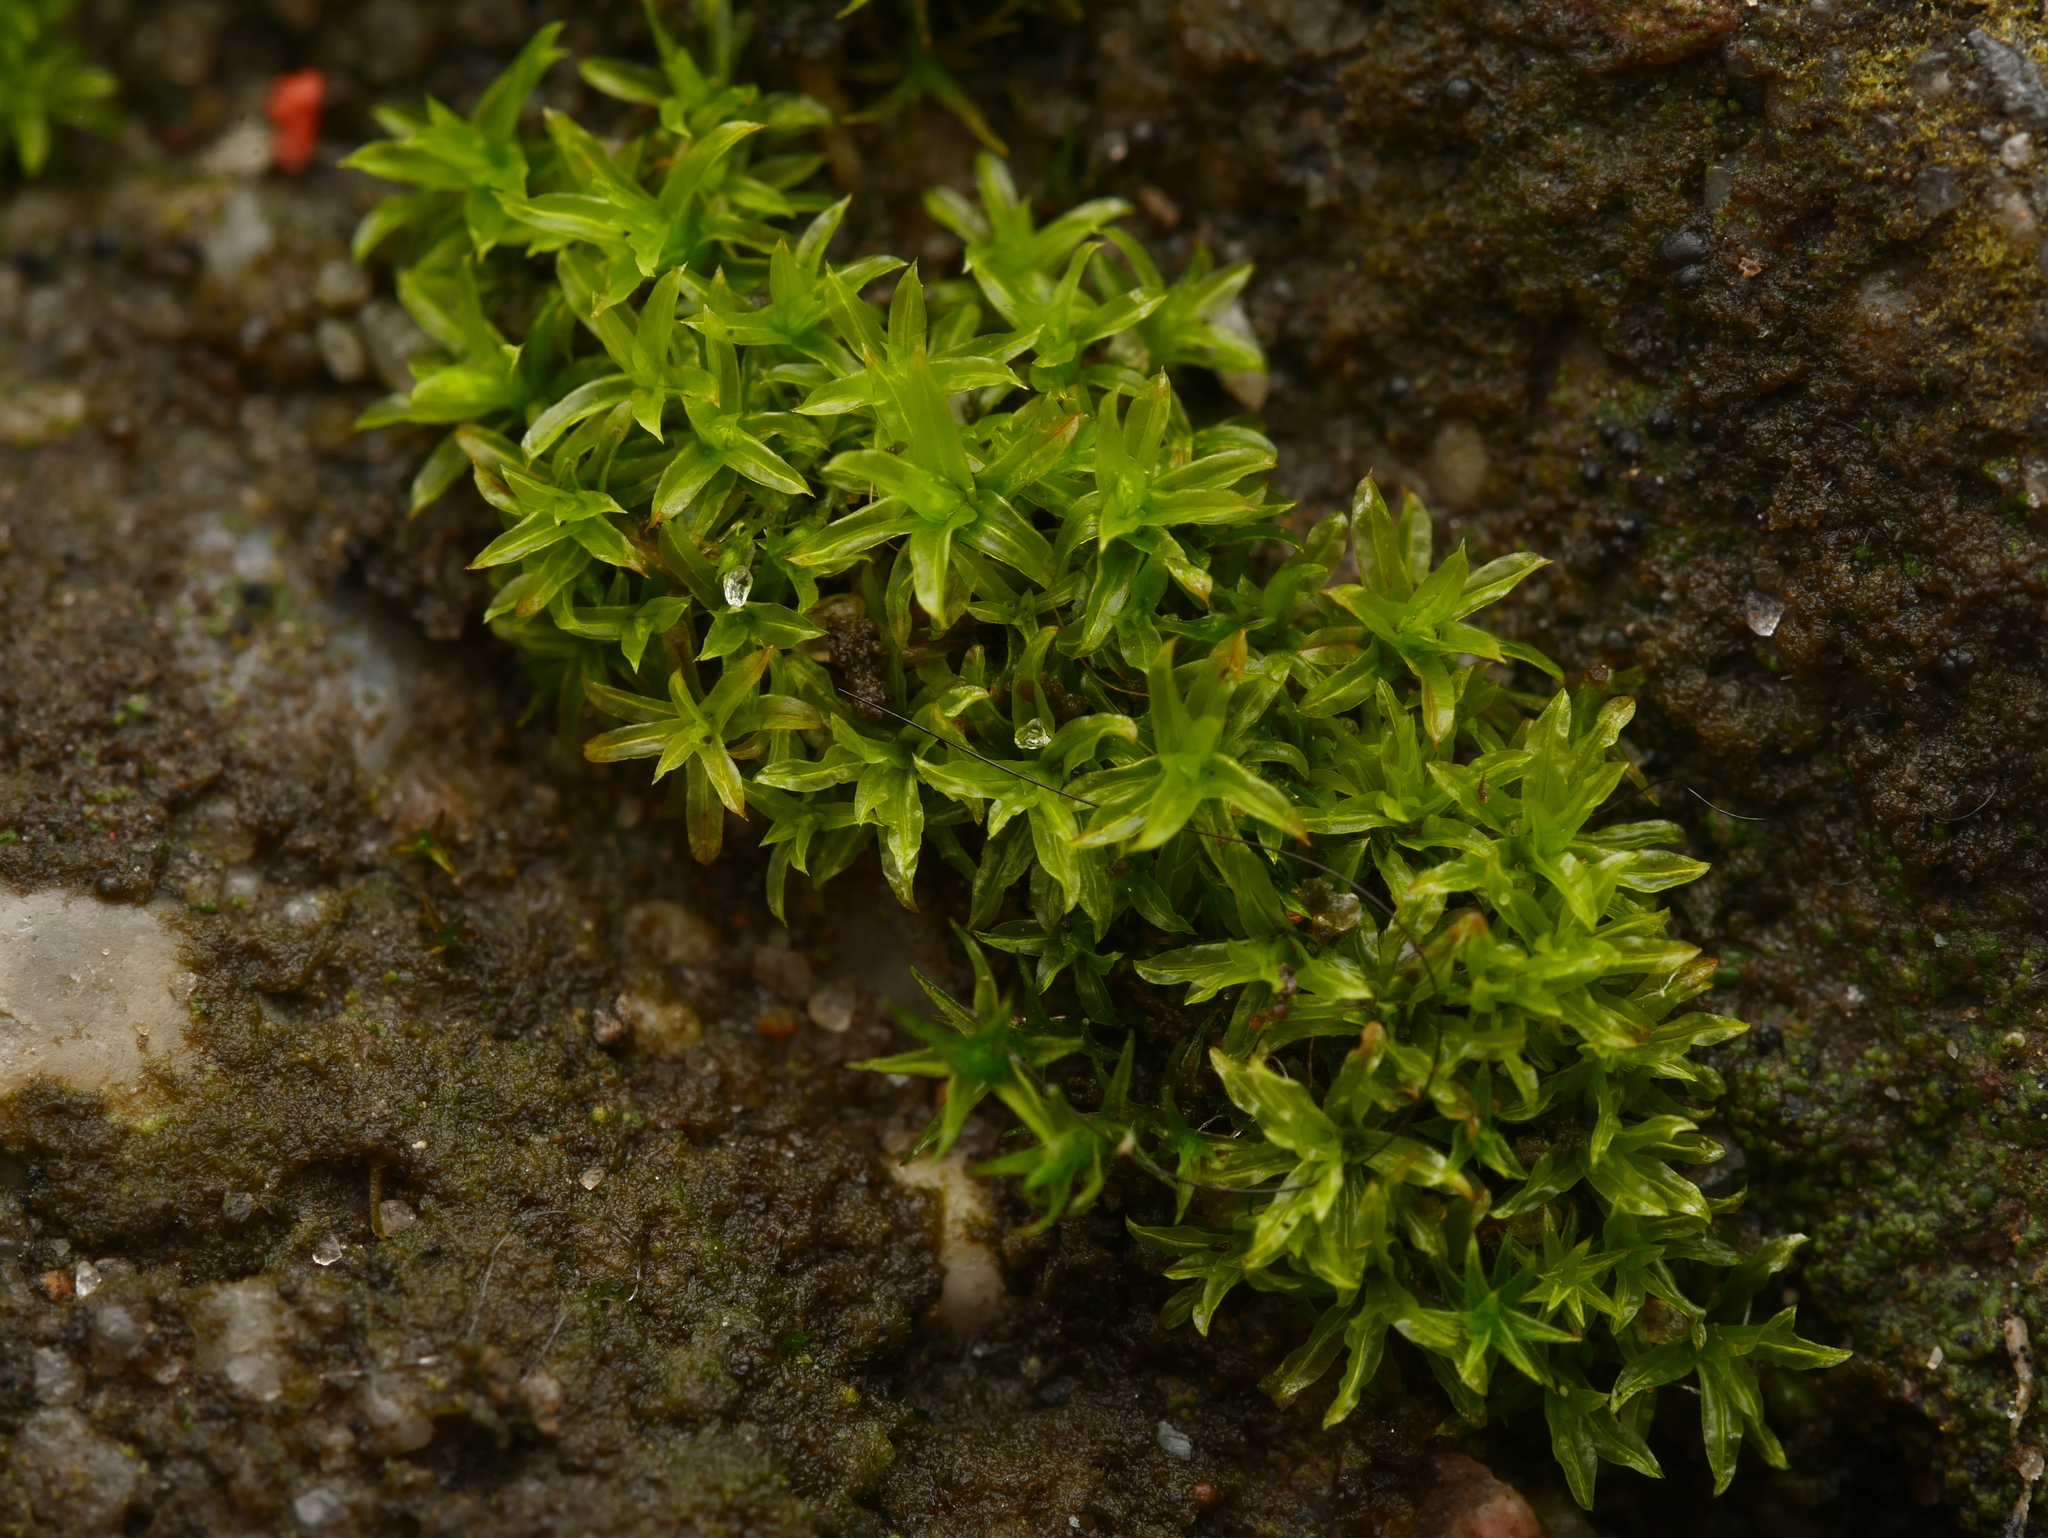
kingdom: Plantae
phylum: Bryophyta
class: Bryopsida
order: Pottiales
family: Pottiaceae
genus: Barbula
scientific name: Barbula unguiculata
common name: Prickly beard moss
